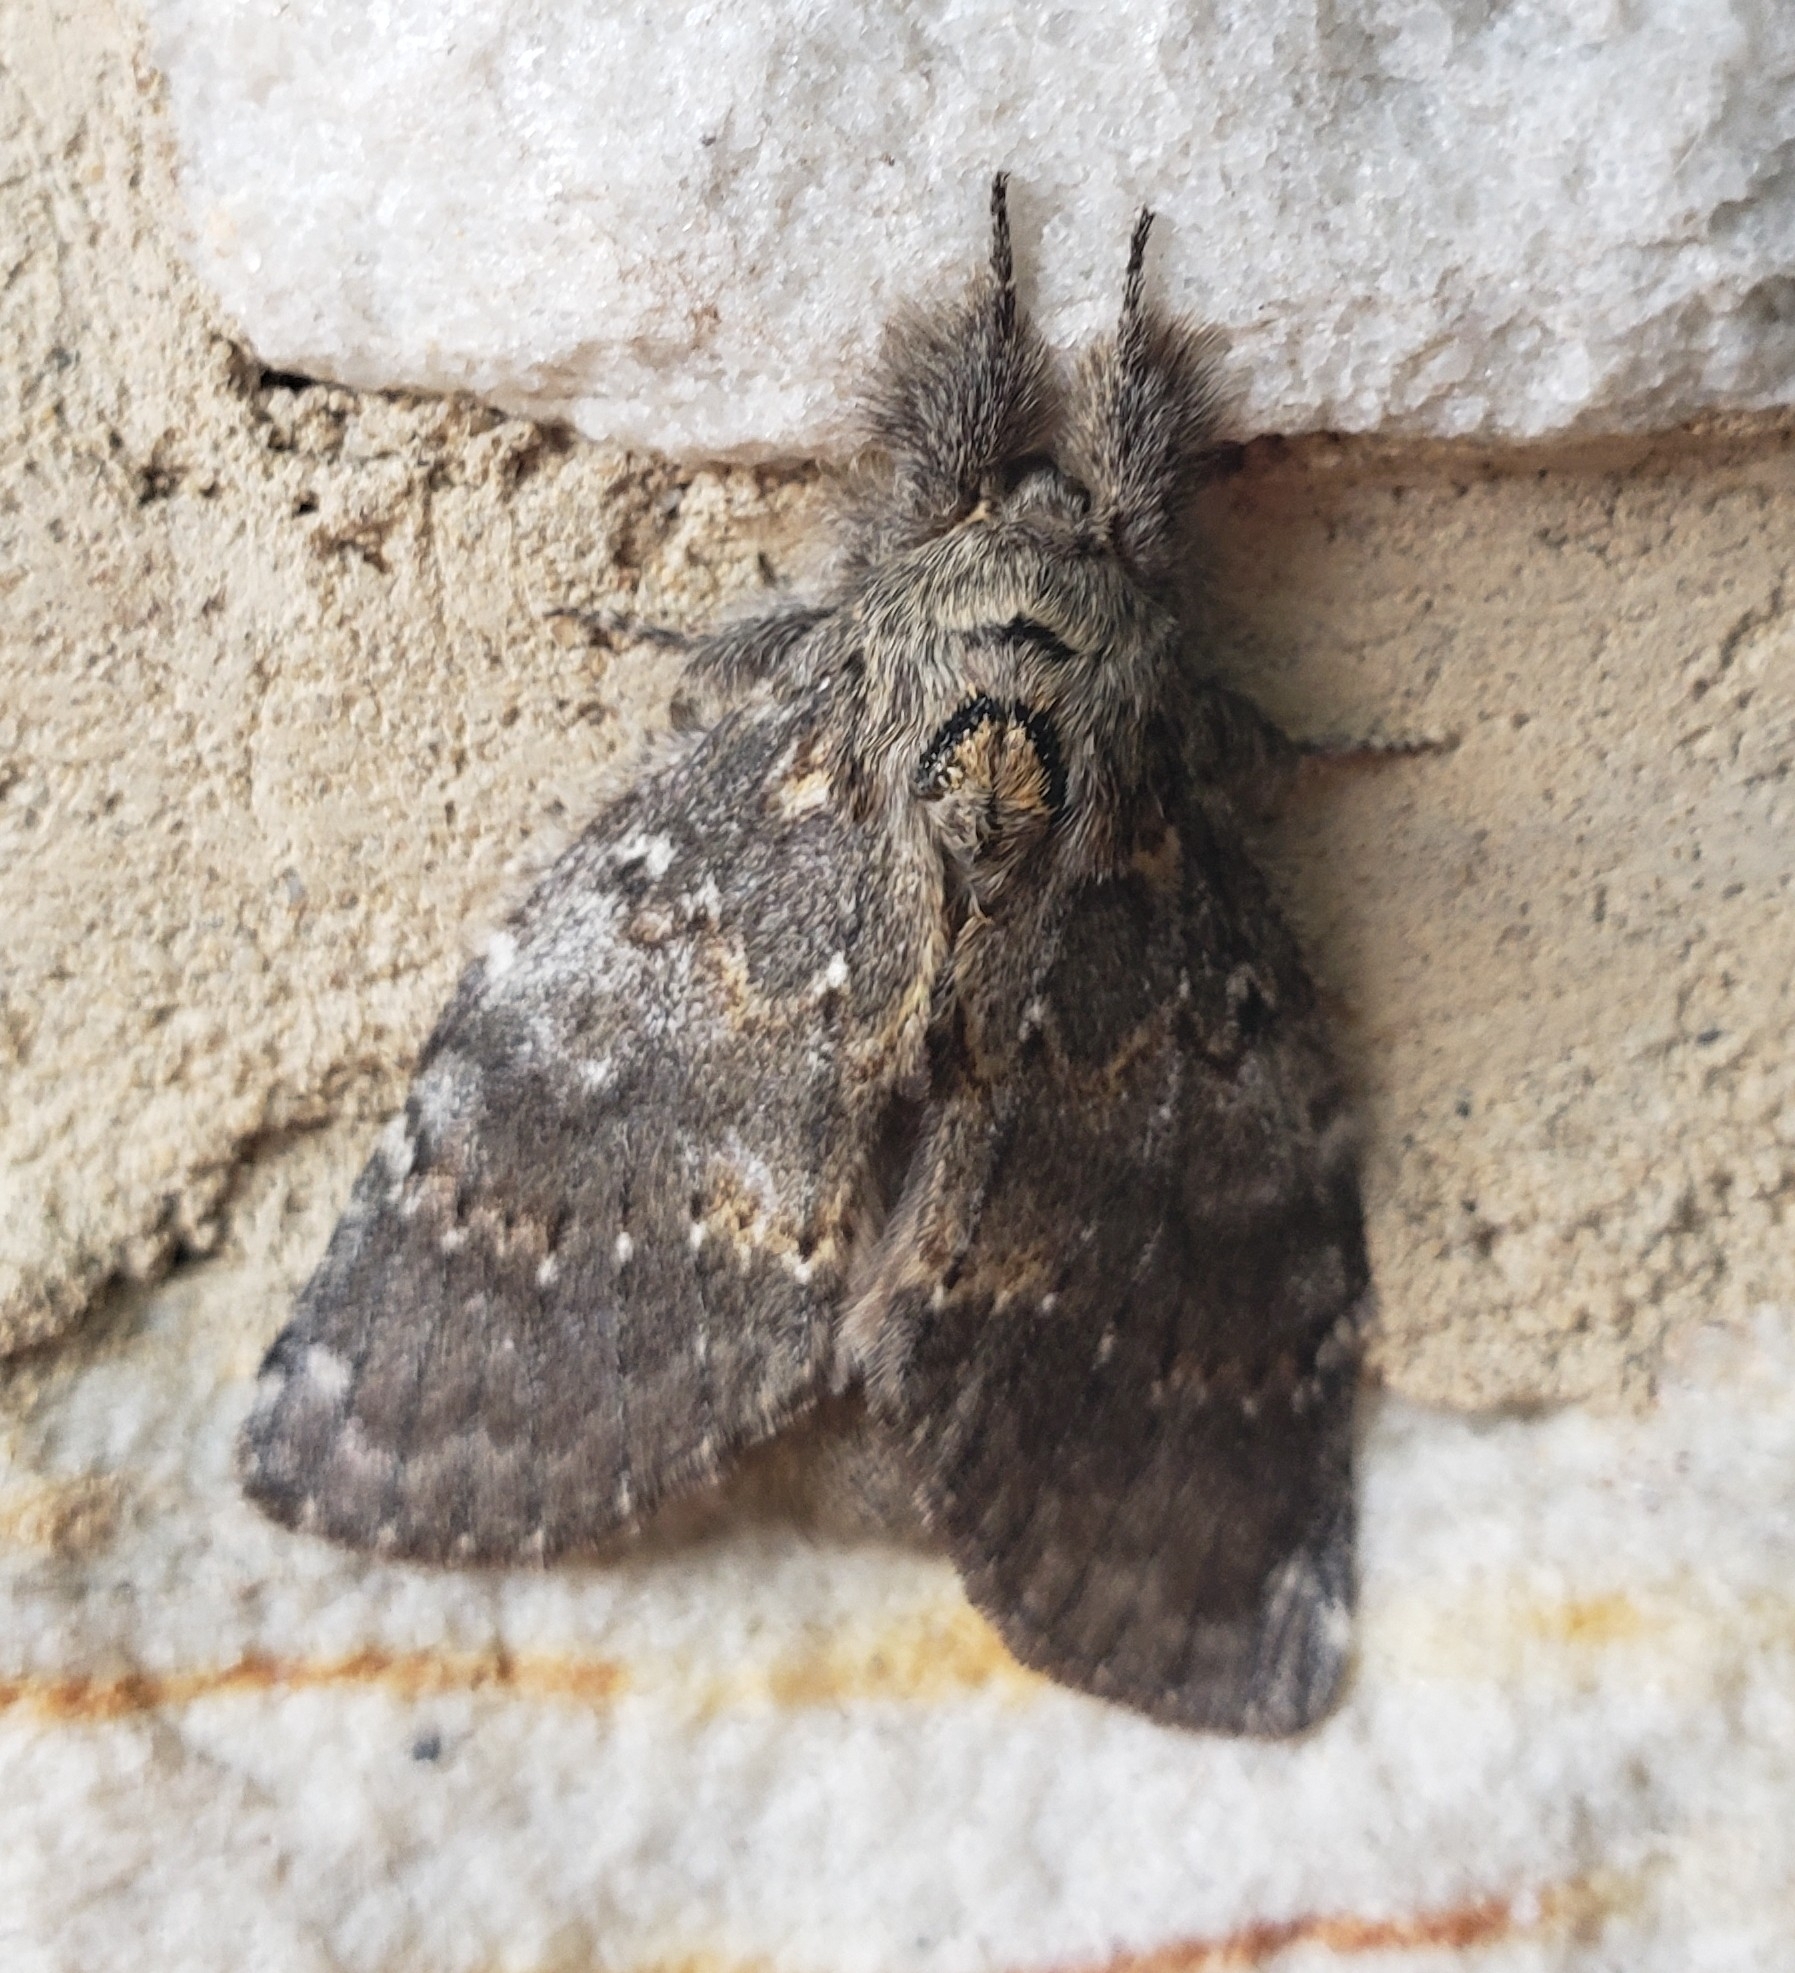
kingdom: Animalia
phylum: Arthropoda
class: Insecta
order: Lepidoptera
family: Notodontidae
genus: Peridea
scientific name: Peridea angulosa
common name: Angulose prominent
